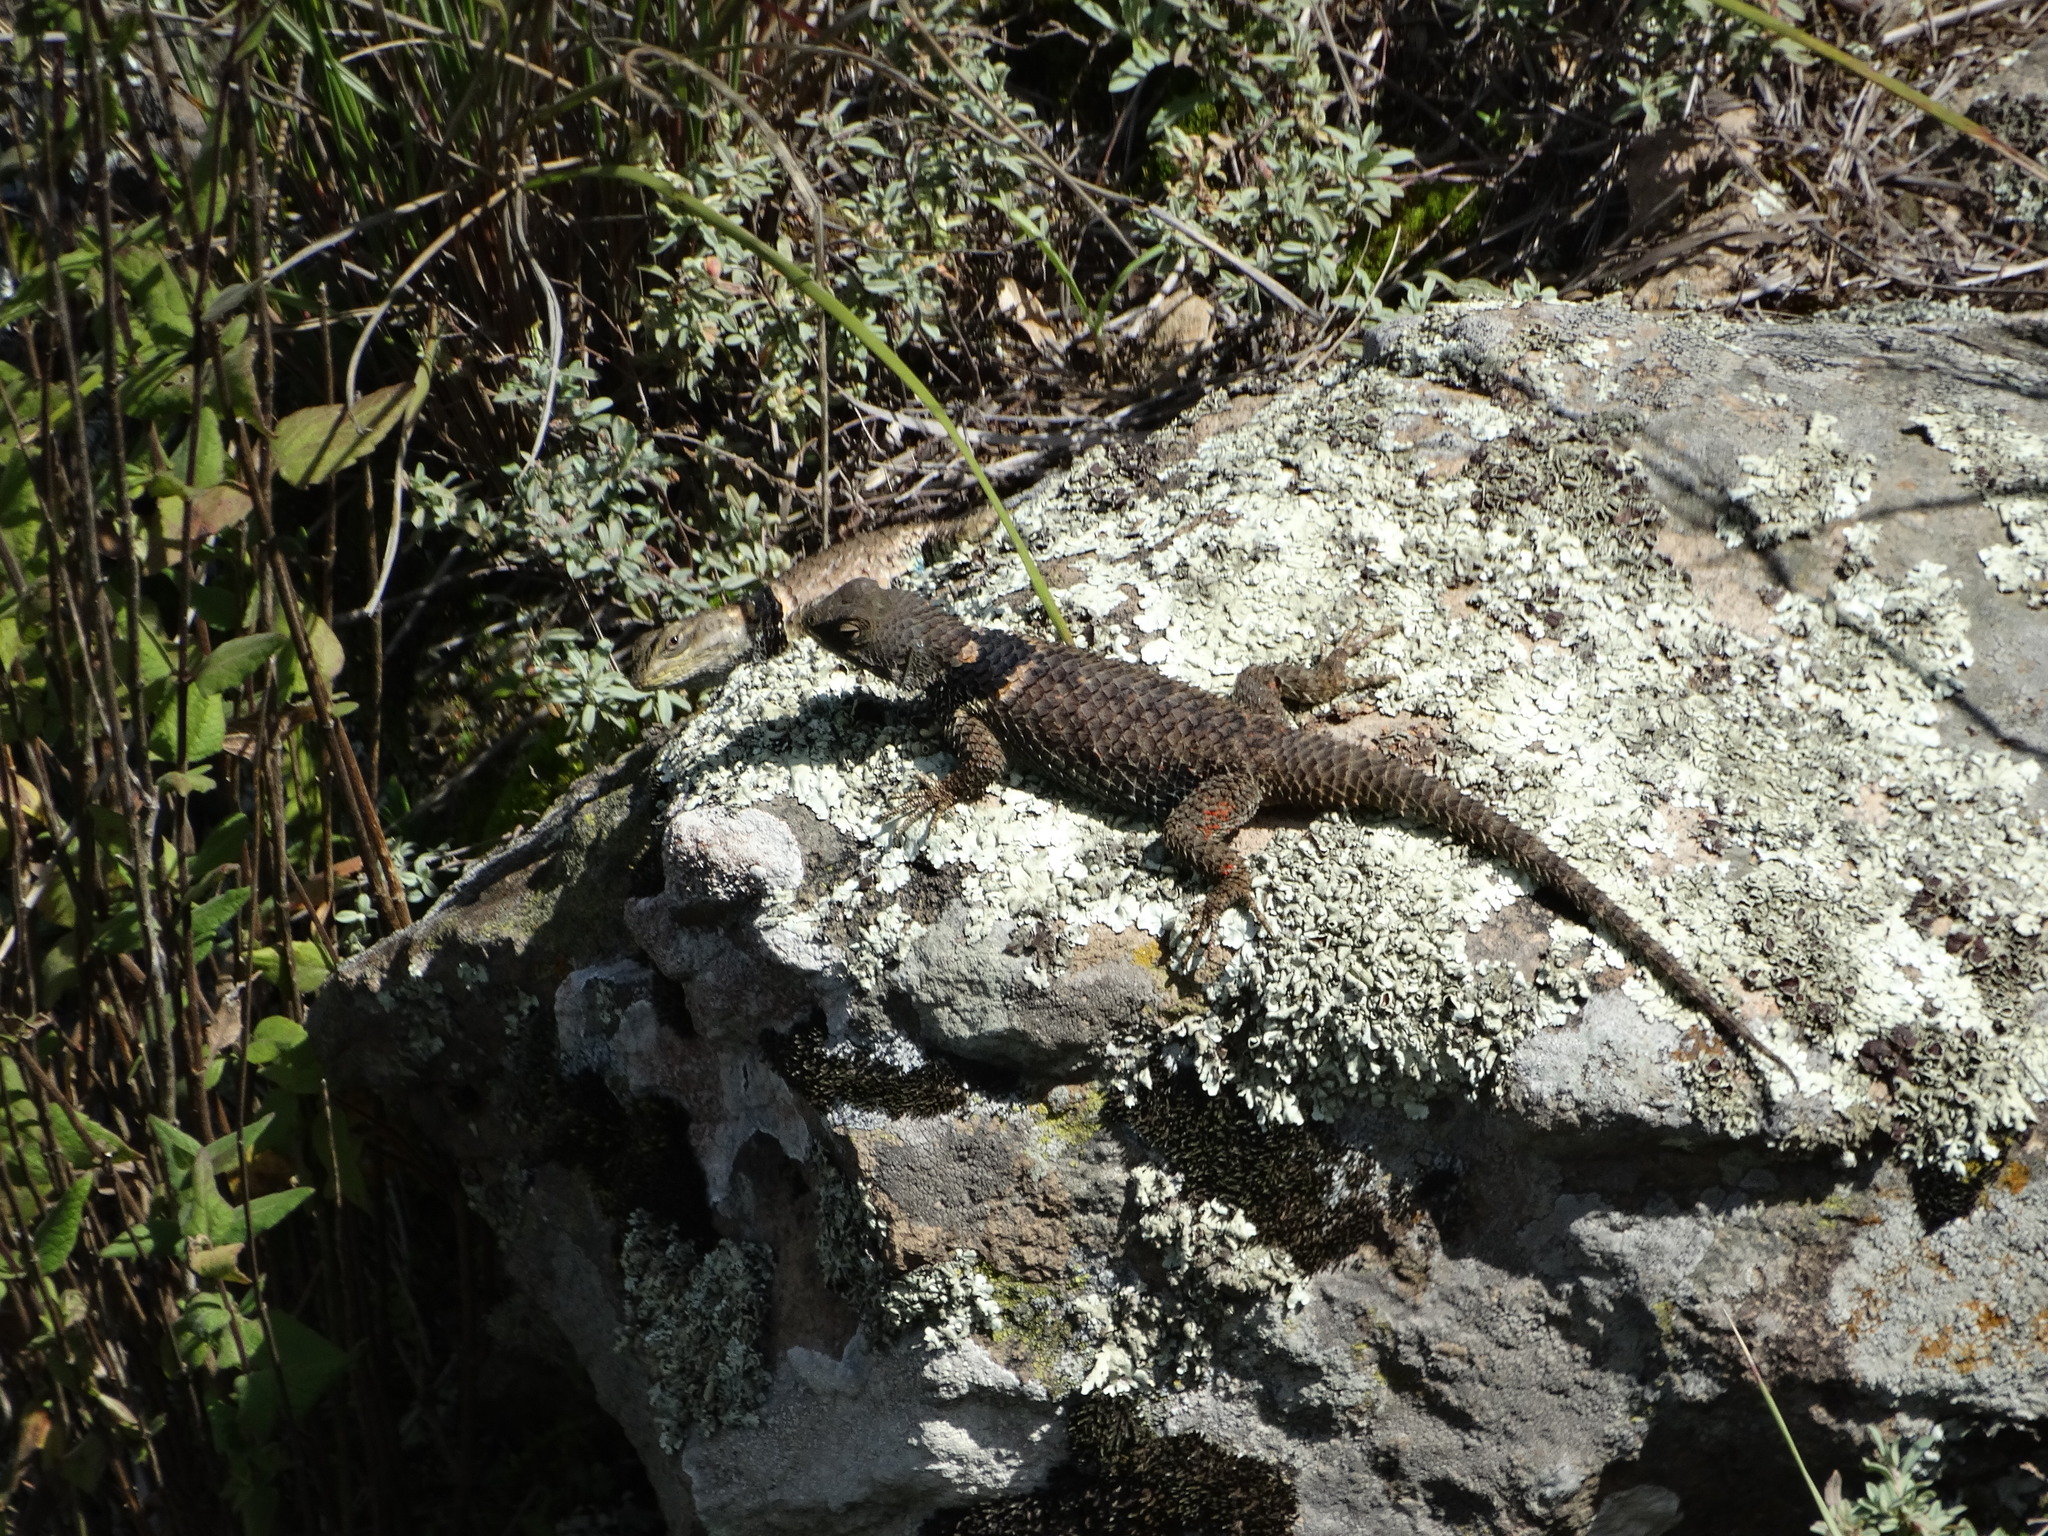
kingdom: Animalia
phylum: Chordata
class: Squamata
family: Phrynosomatidae
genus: Sceloporus
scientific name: Sceloporus torquatus
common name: Central plateau torquate lizard [melanogaster]
